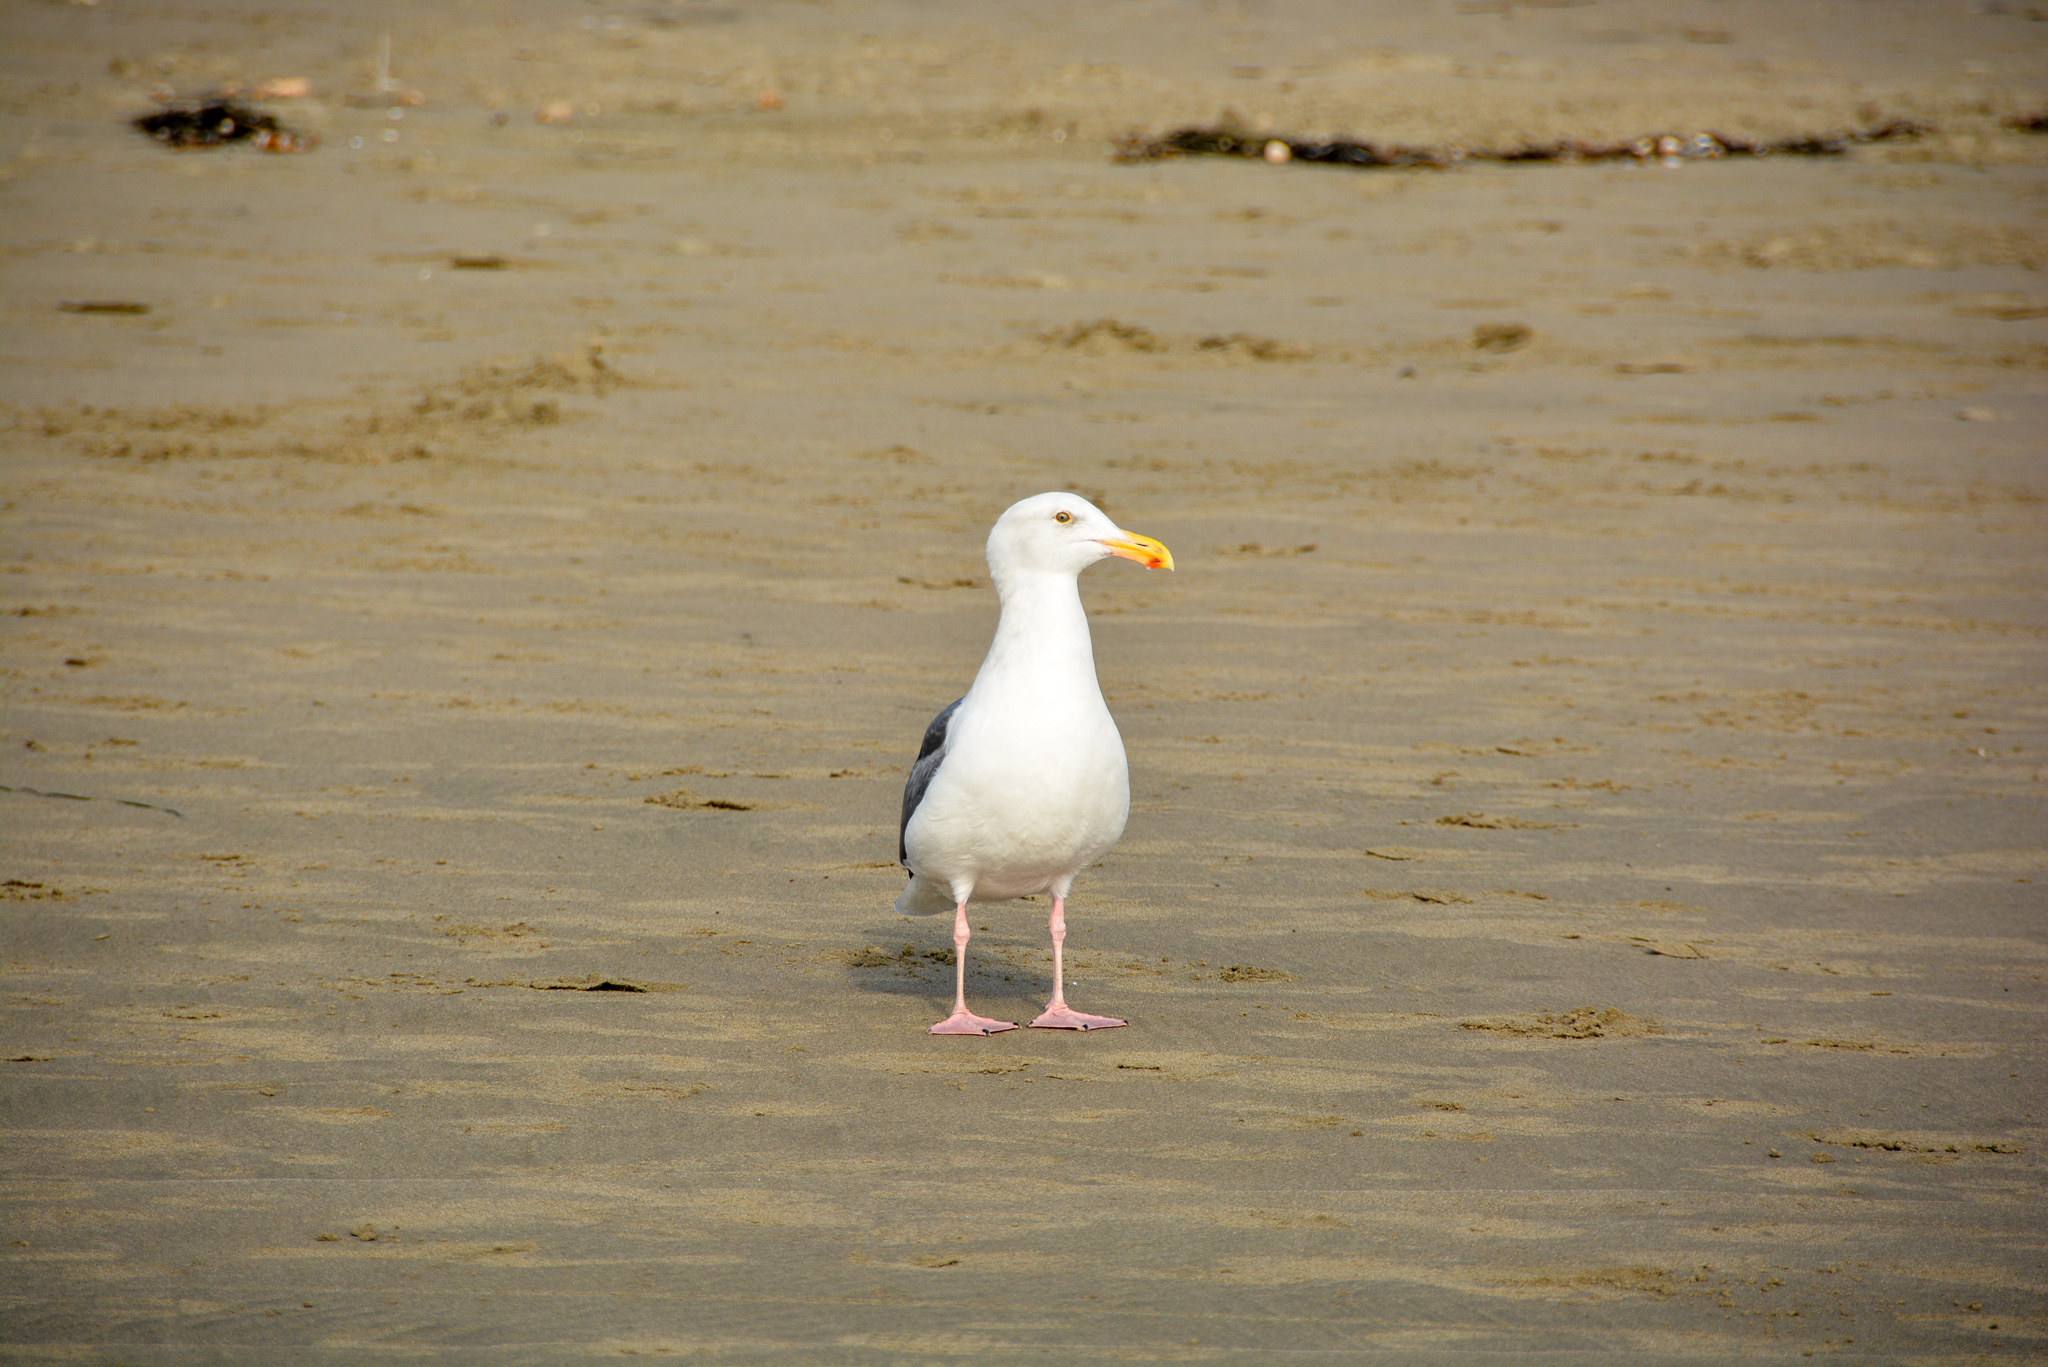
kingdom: Animalia
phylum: Chordata
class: Aves
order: Charadriiformes
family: Laridae
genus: Larus
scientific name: Larus occidentalis
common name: Western gull
